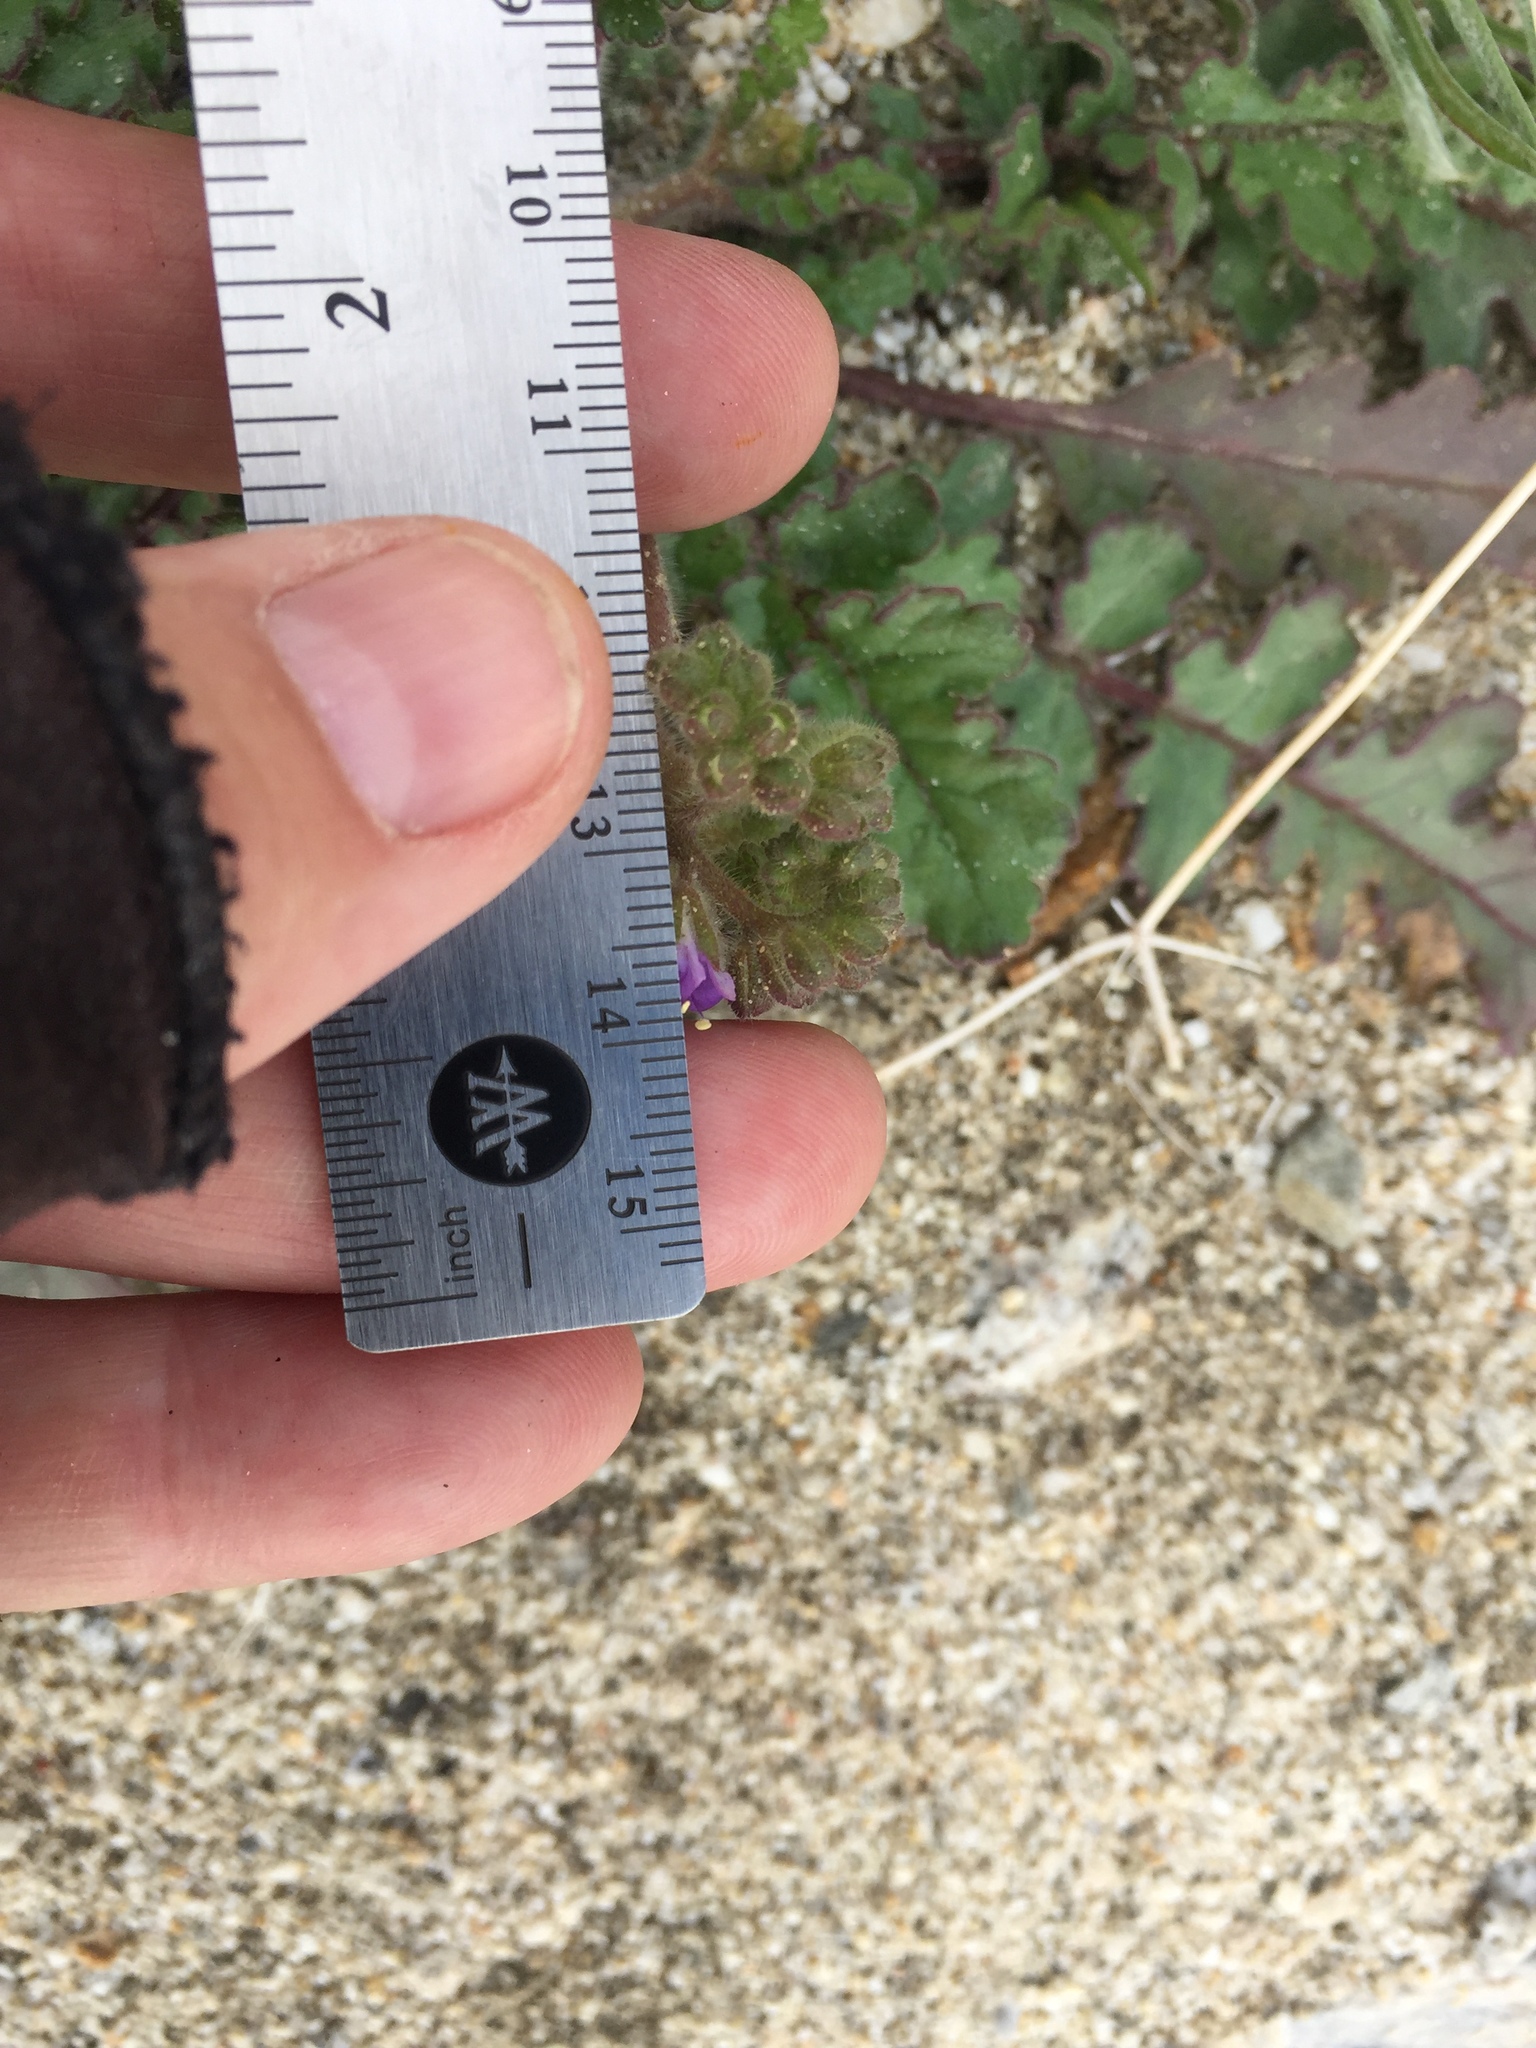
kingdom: Plantae
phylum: Tracheophyta
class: Magnoliopsida
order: Boraginales
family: Hydrophyllaceae
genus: Phacelia
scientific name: Phacelia minutiflora
